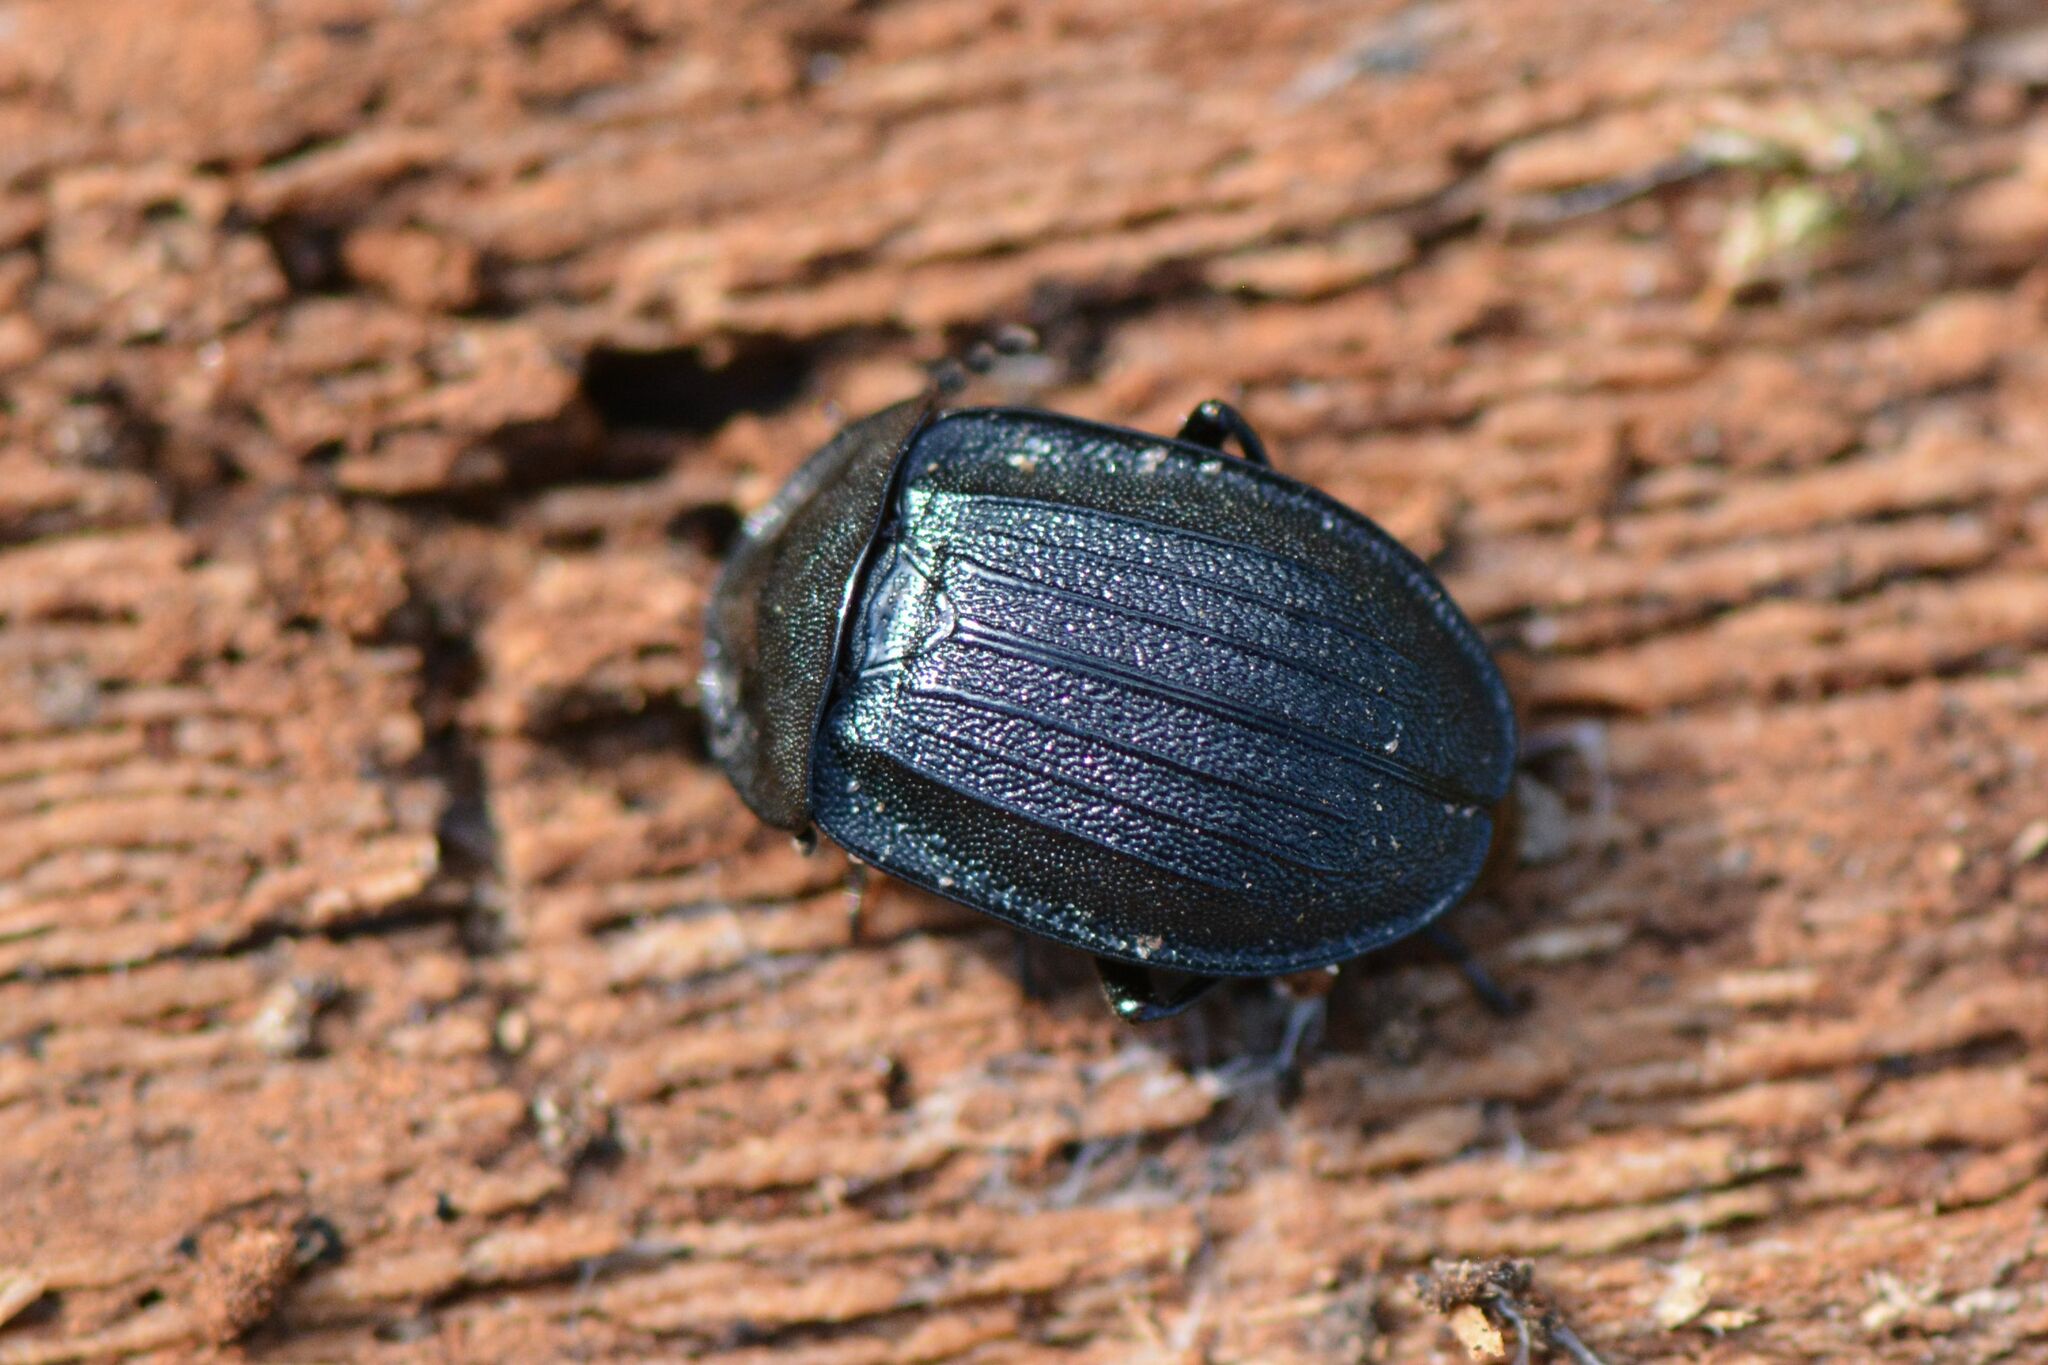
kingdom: Animalia
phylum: Arthropoda
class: Insecta
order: Coleoptera
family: Staphylinidae
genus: Silpha
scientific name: Silpha atrata
